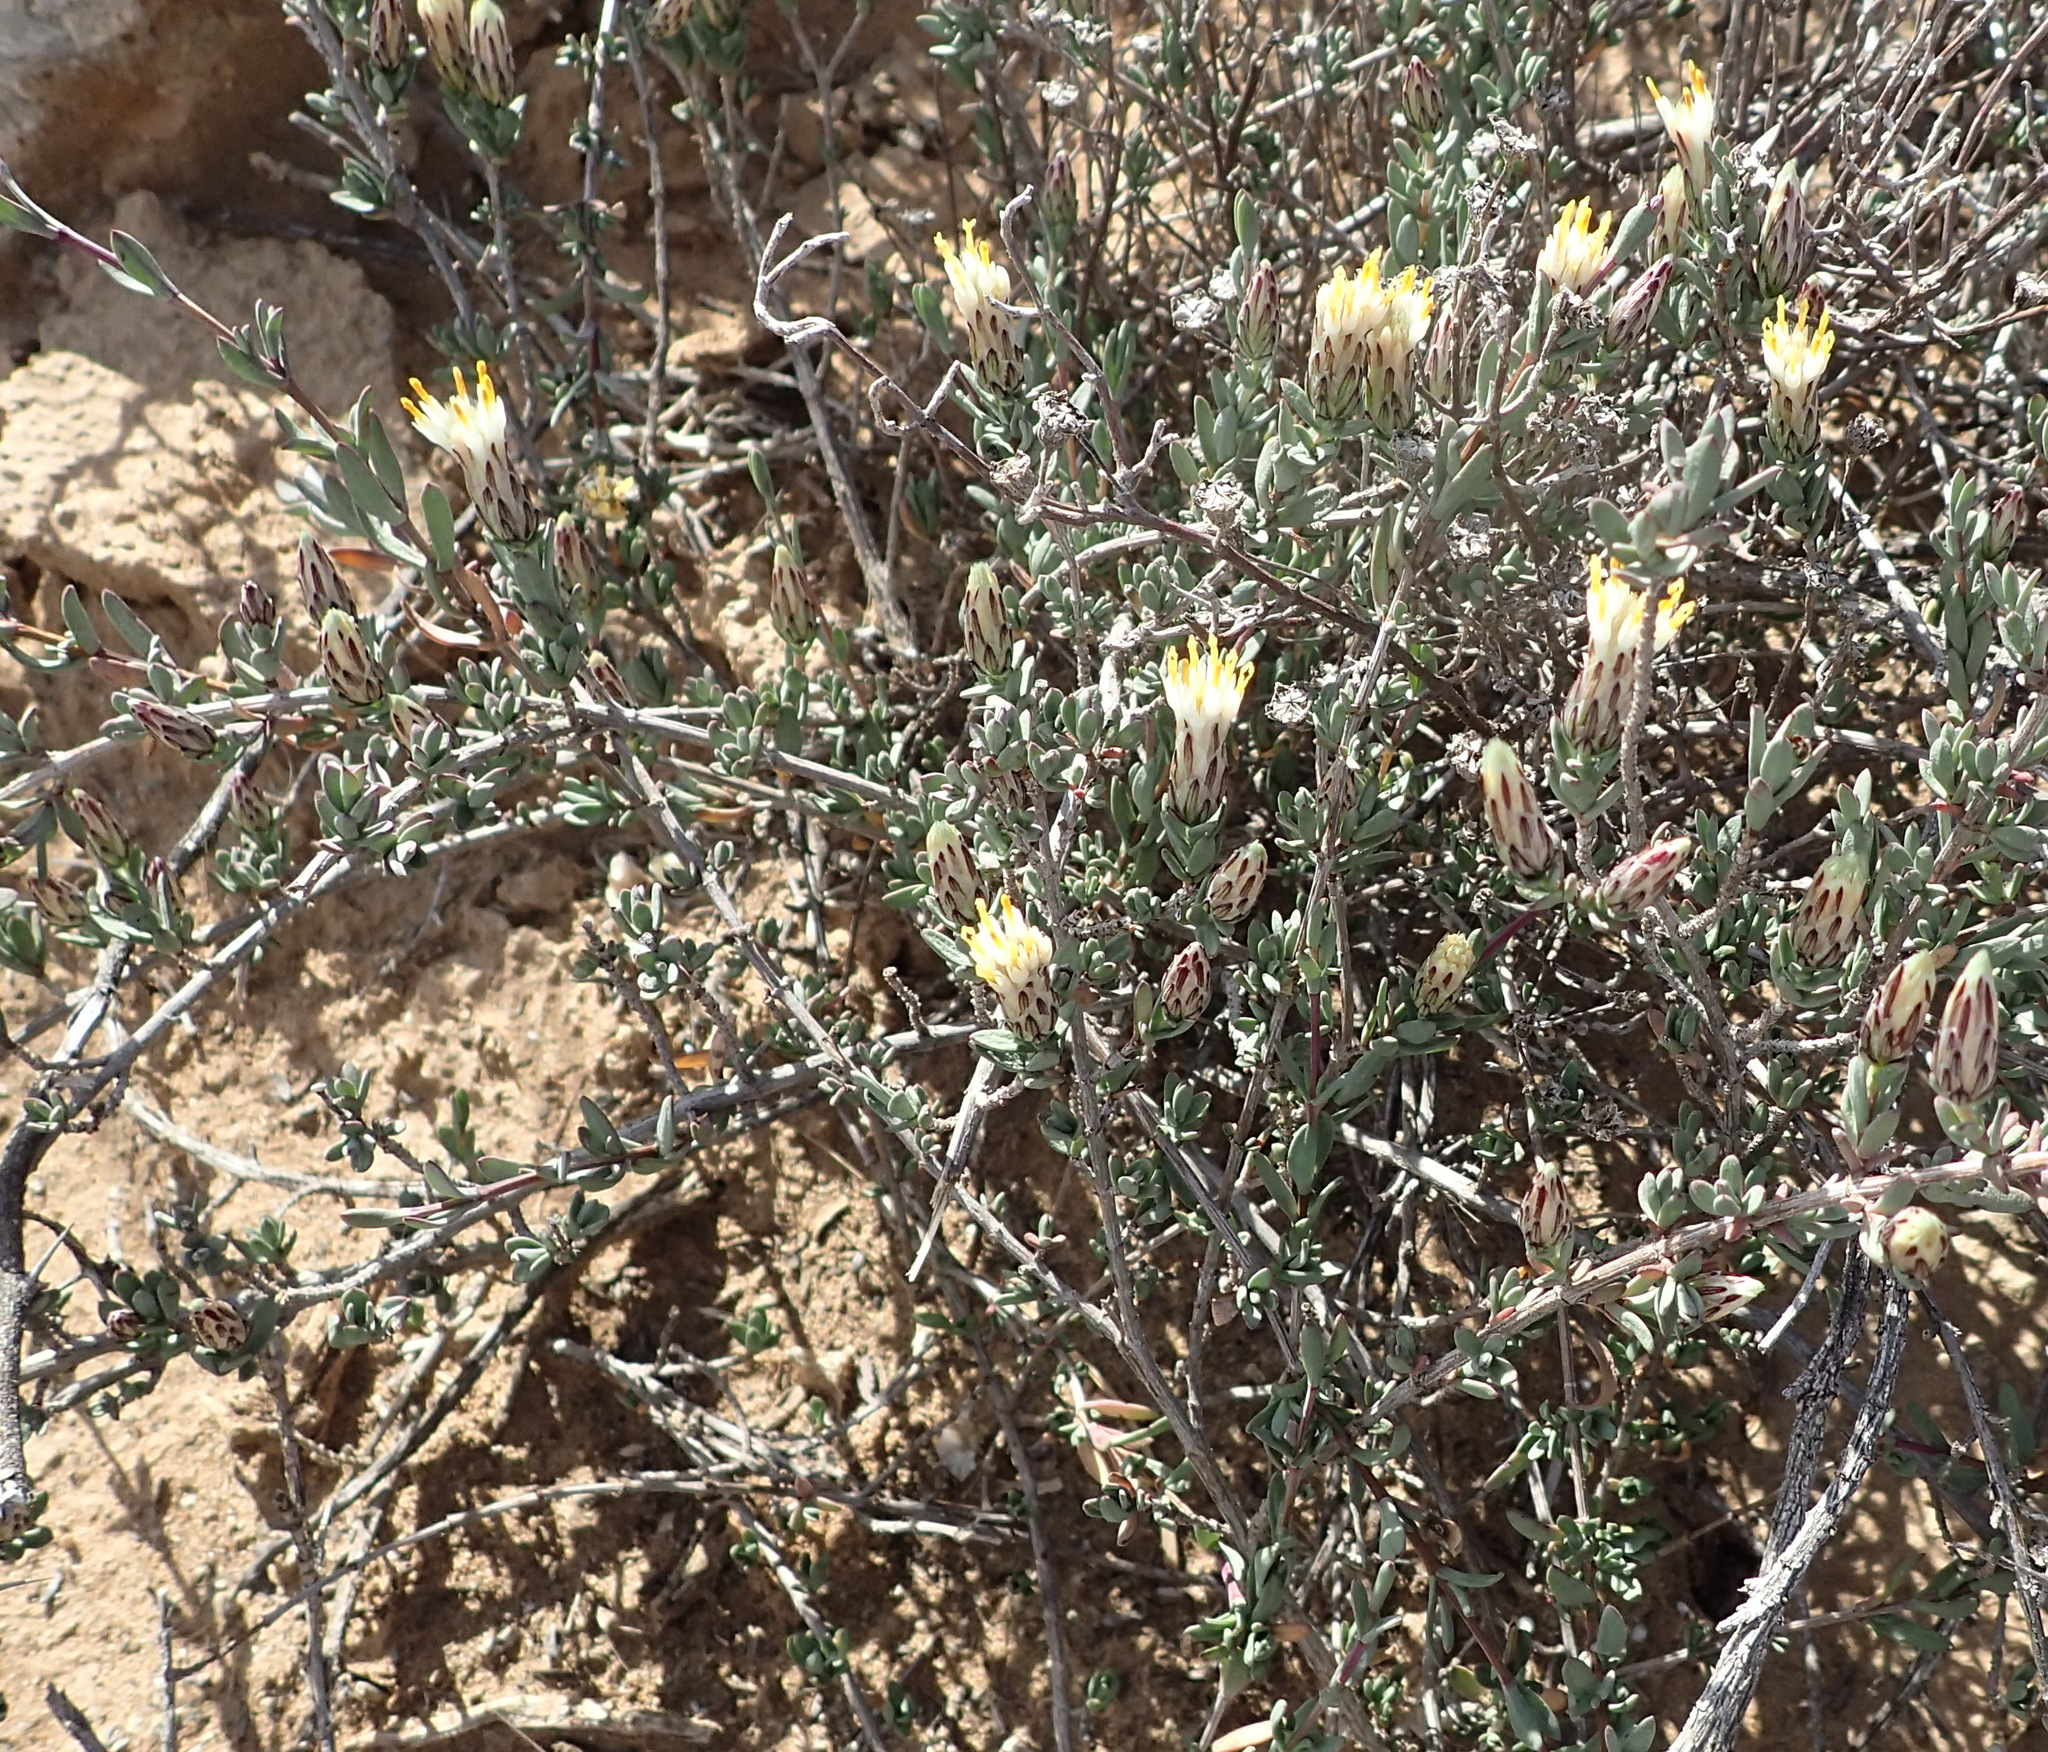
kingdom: Plantae
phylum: Tracheophyta
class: Magnoliopsida
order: Asterales
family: Asteraceae
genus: Pteronia
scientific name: Pteronia oblanceolata
